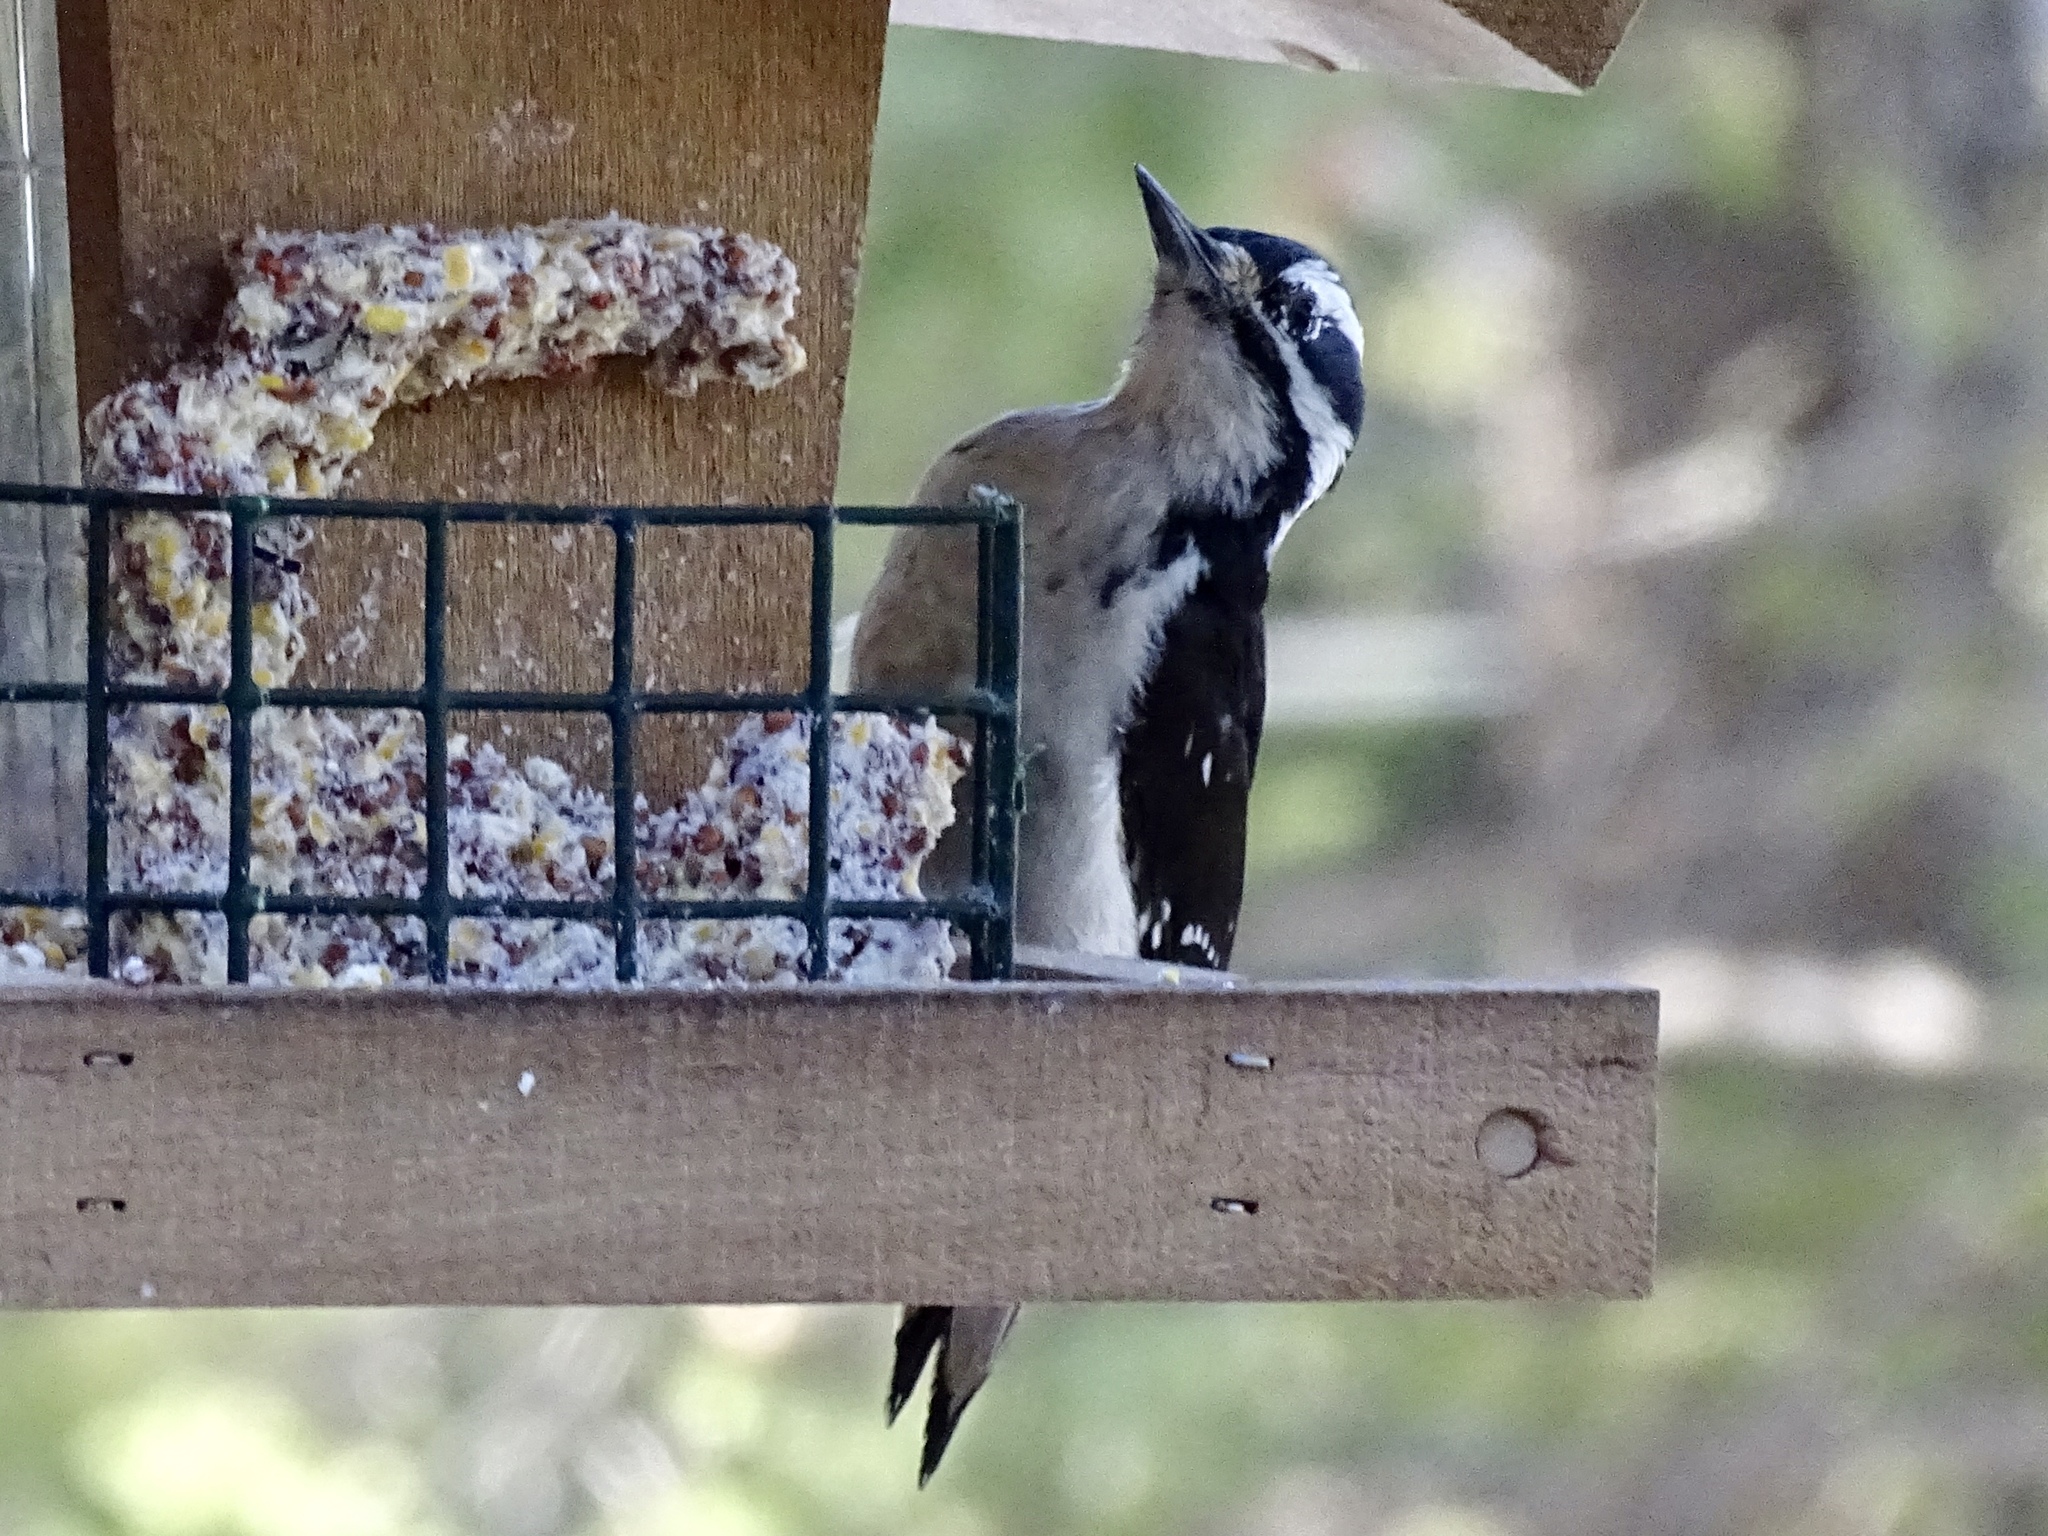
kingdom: Animalia
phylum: Chordata
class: Aves
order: Piciformes
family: Picidae
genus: Leuconotopicus
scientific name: Leuconotopicus villosus
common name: Hairy woodpecker
